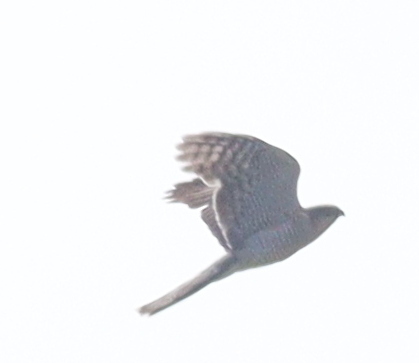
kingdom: Animalia
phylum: Chordata
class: Aves
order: Accipitriformes
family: Accipitridae
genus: Accipiter
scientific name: Accipiter nisus
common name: Eurasian sparrowhawk
